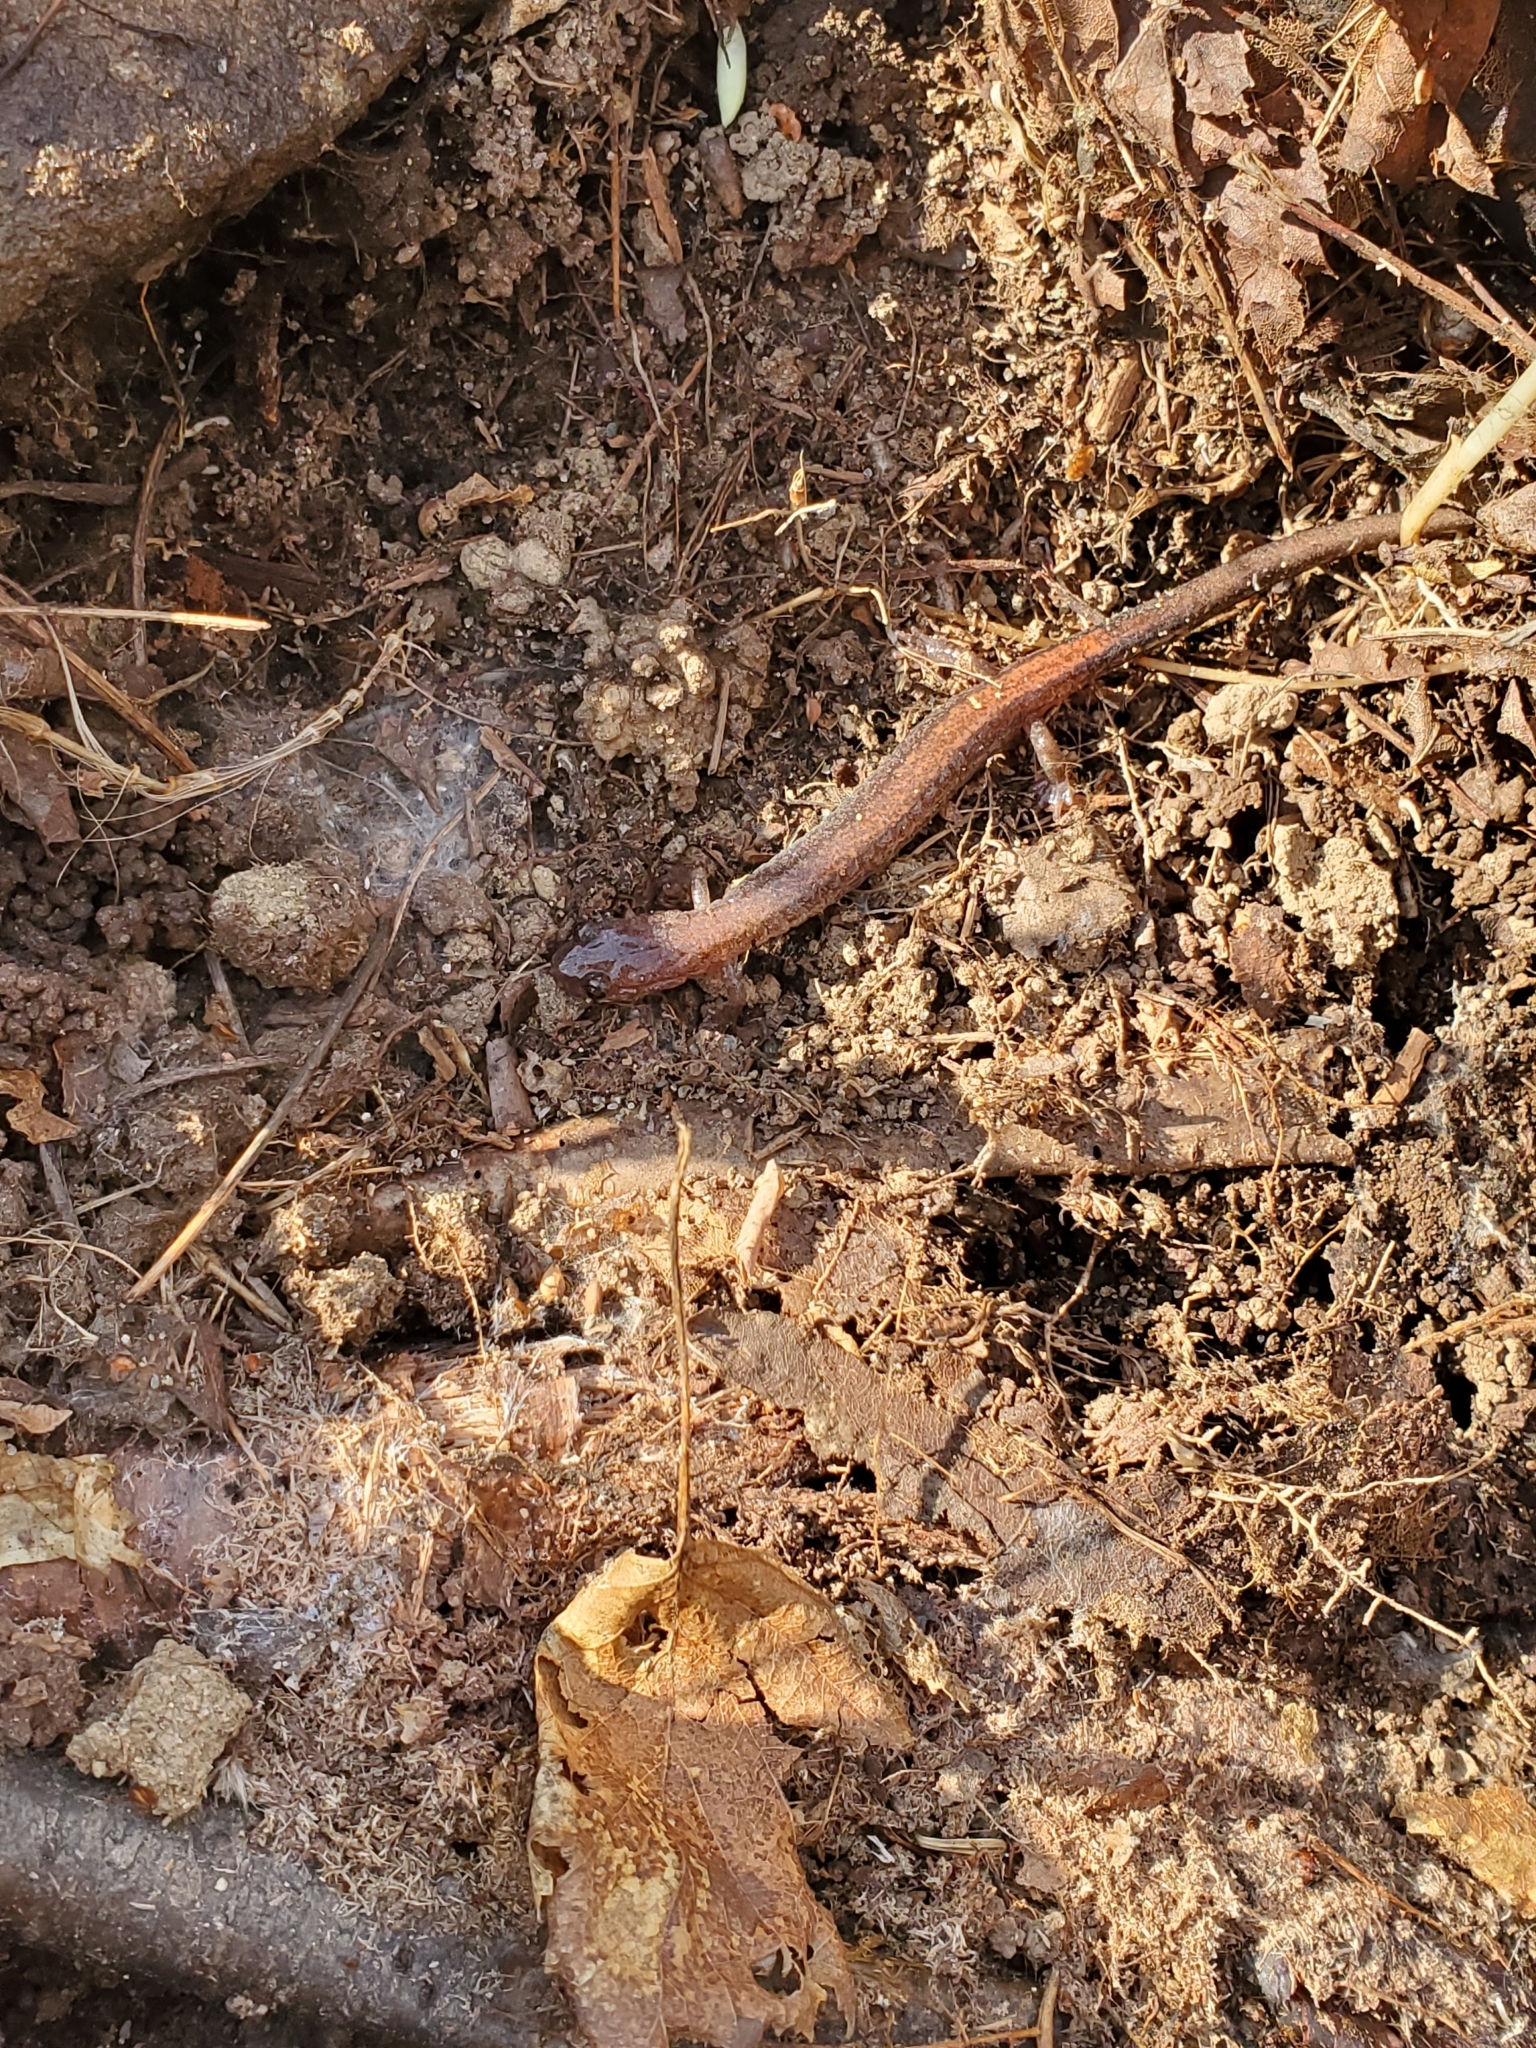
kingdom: Animalia
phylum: Chordata
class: Amphibia
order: Caudata
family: Plethodontidae
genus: Plethodon
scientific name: Plethodon cinereus
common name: Redback salamander
